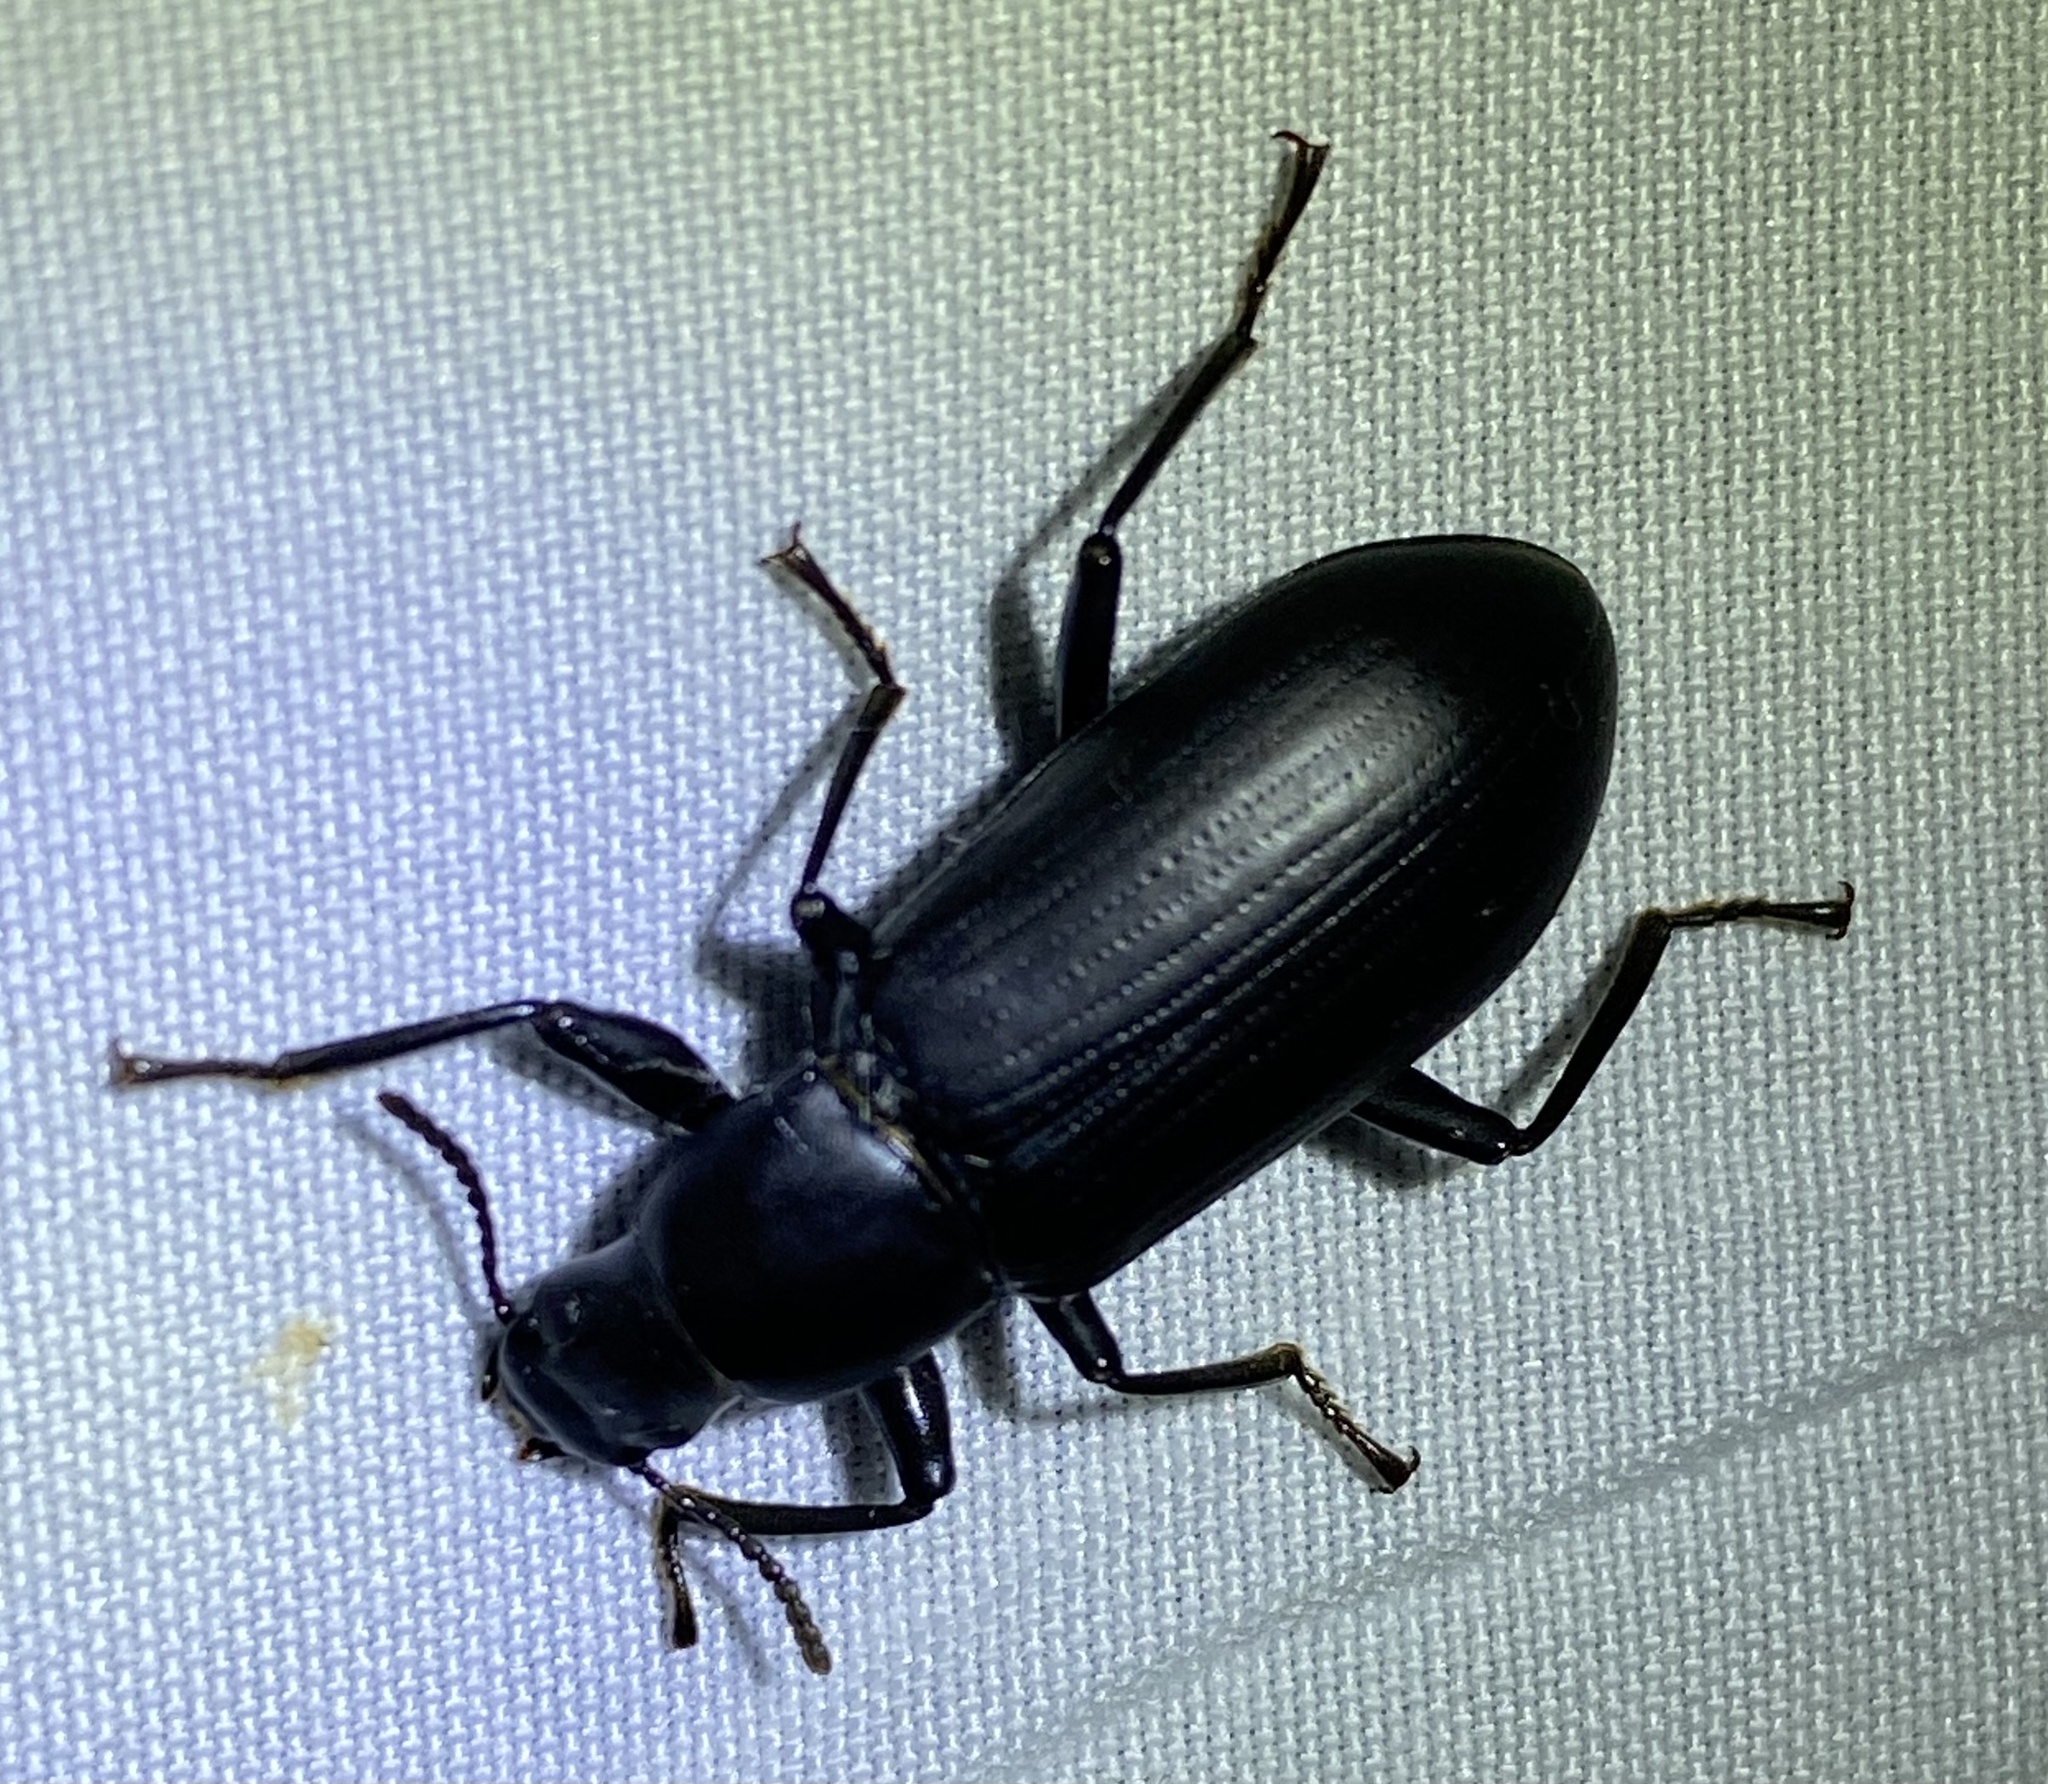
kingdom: Animalia
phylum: Arthropoda
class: Insecta
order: Coleoptera
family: Tenebrionidae
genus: Alobates
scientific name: Alobates
